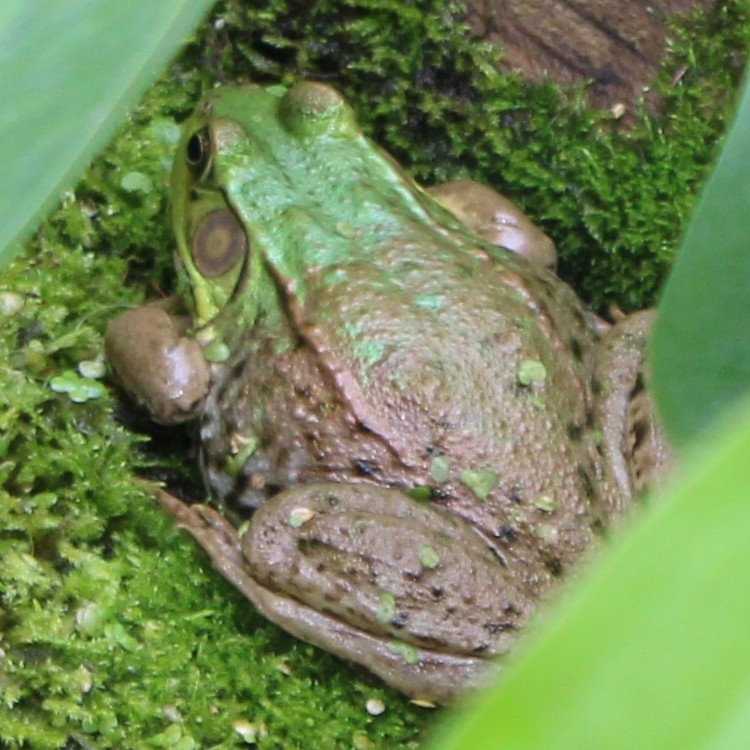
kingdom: Animalia
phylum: Chordata
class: Amphibia
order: Anura
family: Ranidae
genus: Lithobates
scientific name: Lithobates clamitans
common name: Green frog
